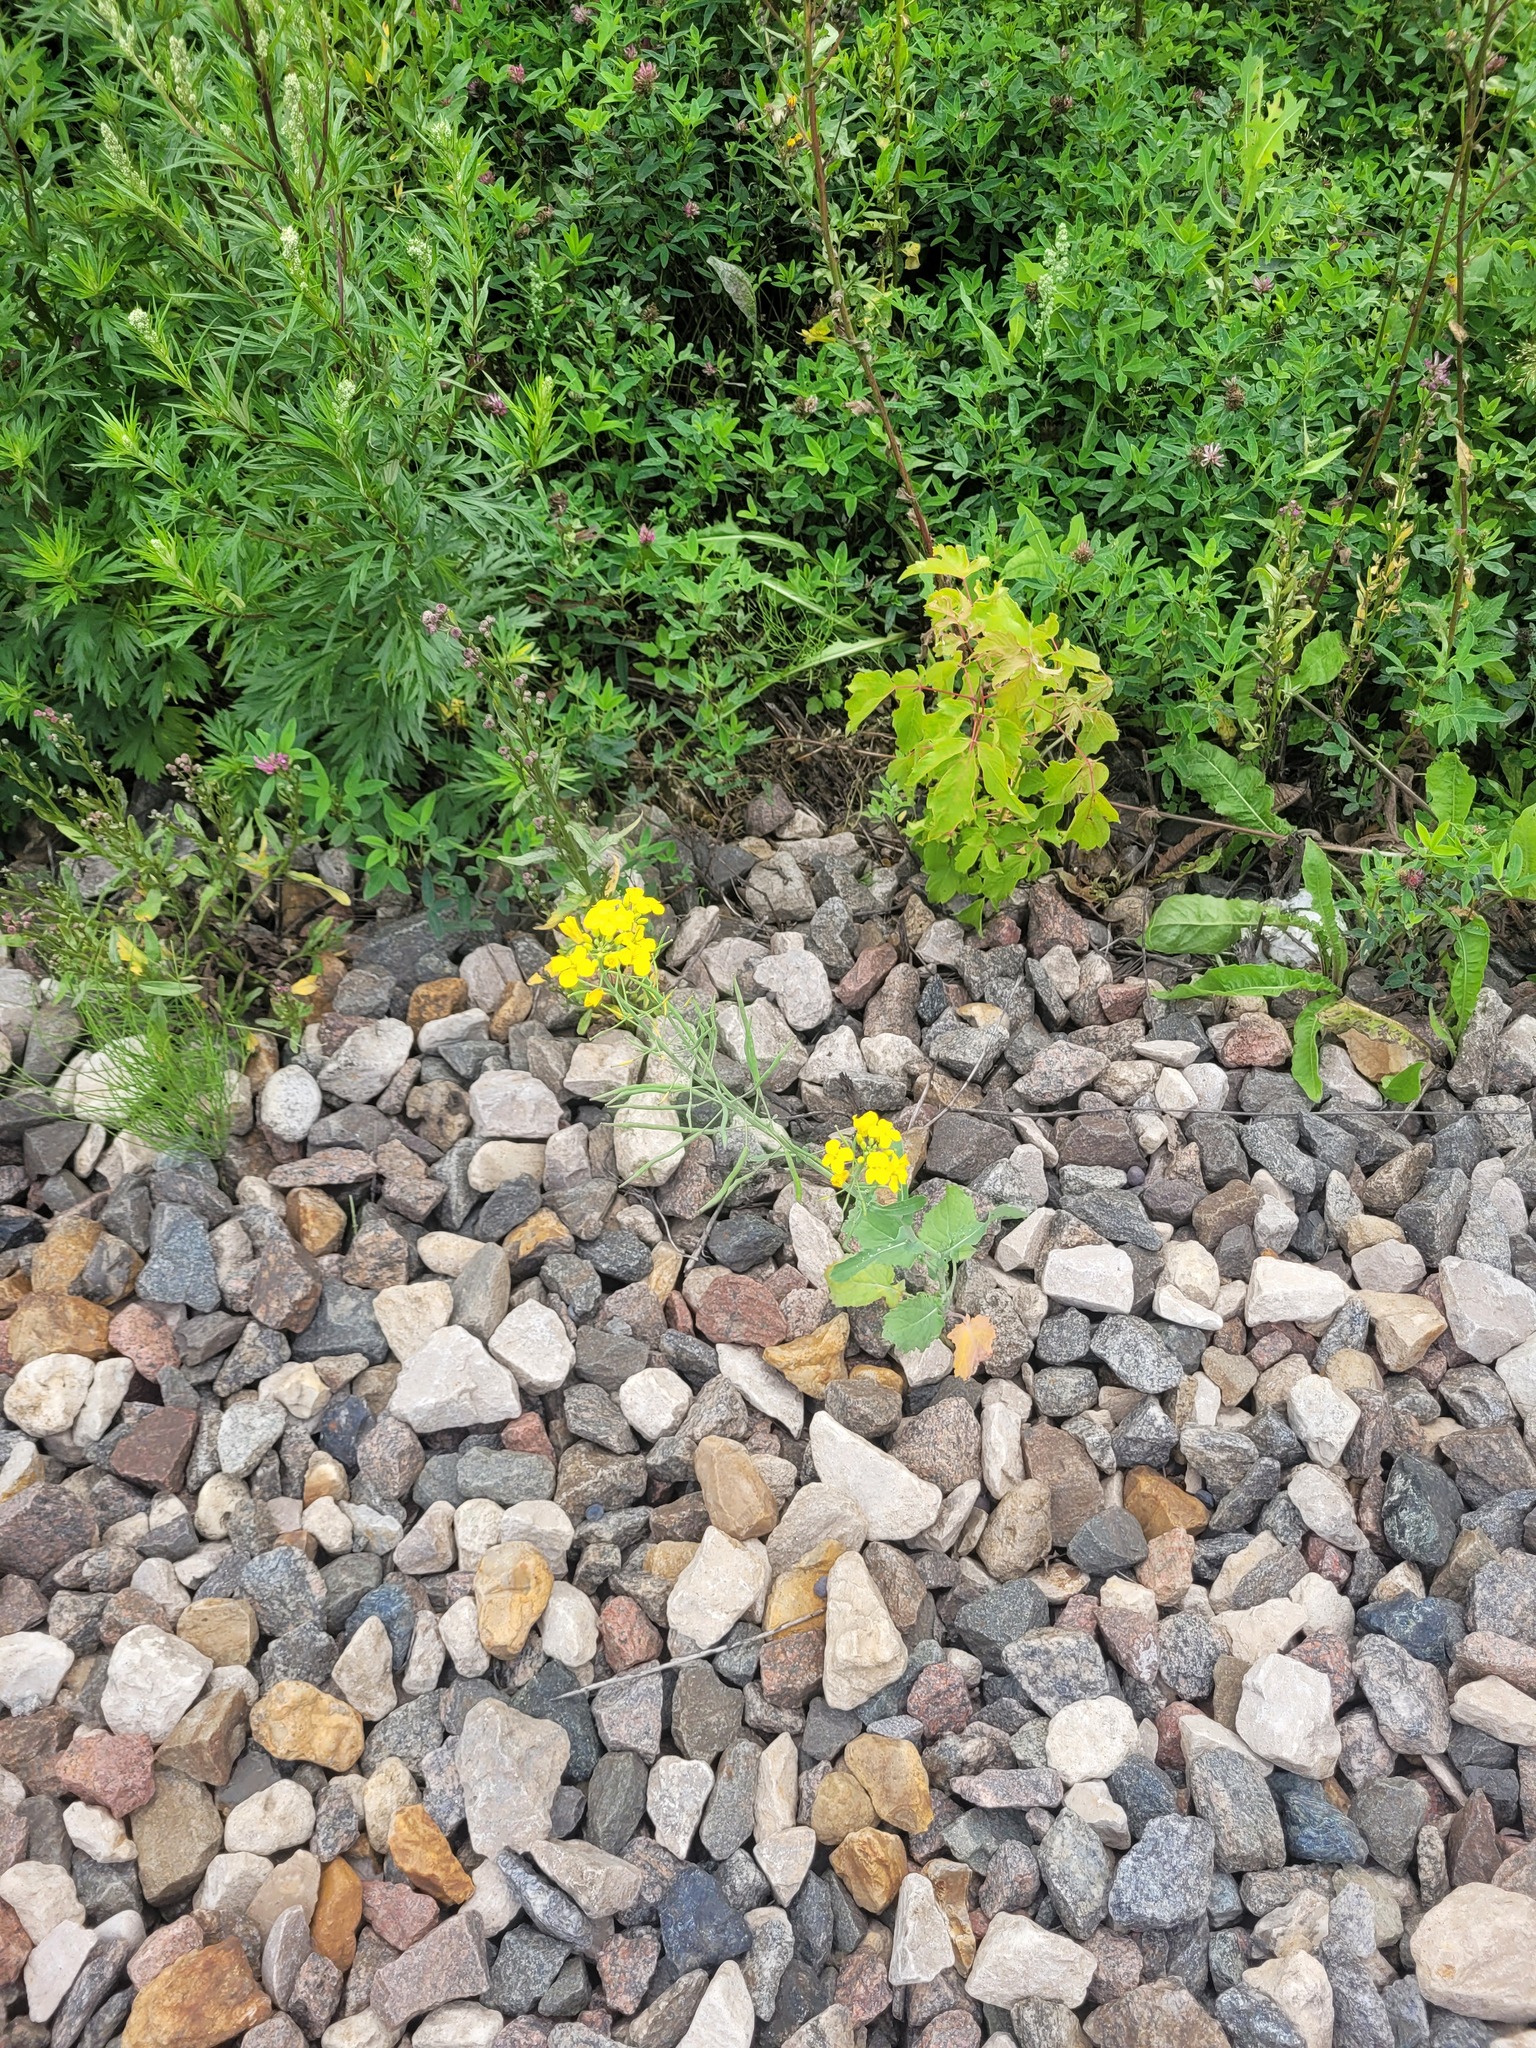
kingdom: Plantae
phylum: Tracheophyta
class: Magnoliopsida
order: Brassicales
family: Brassicaceae
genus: Brassica
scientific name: Brassica napus
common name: Rape
